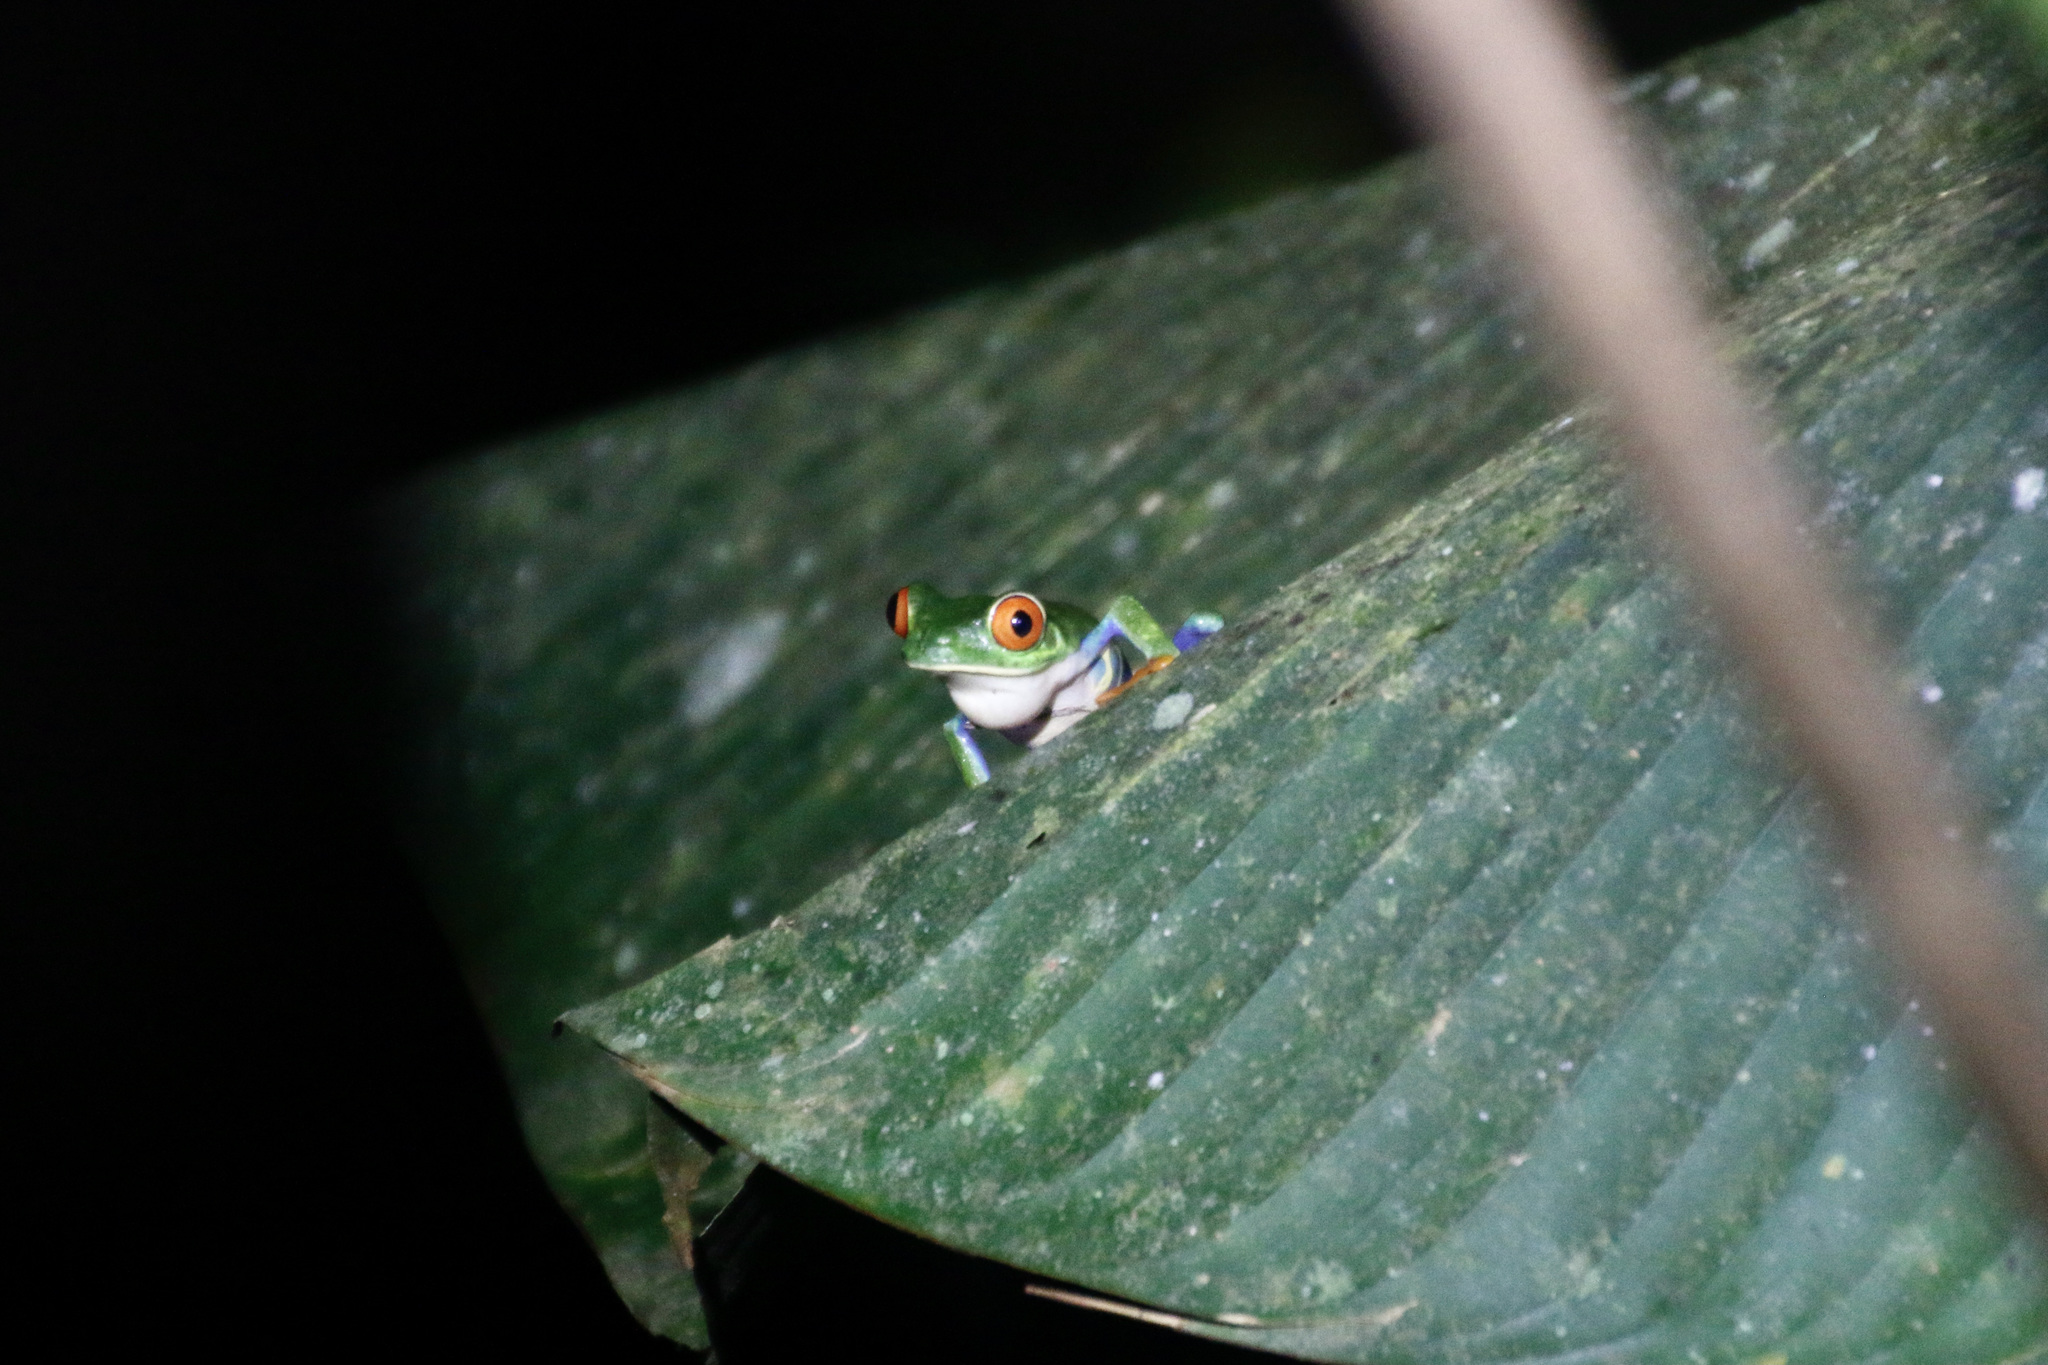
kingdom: Animalia
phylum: Chordata
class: Amphibia
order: Anura
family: Phyllomedusidae
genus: Agalychnis
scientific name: Agalychnis callidryas
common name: Red-eyed treefrog
